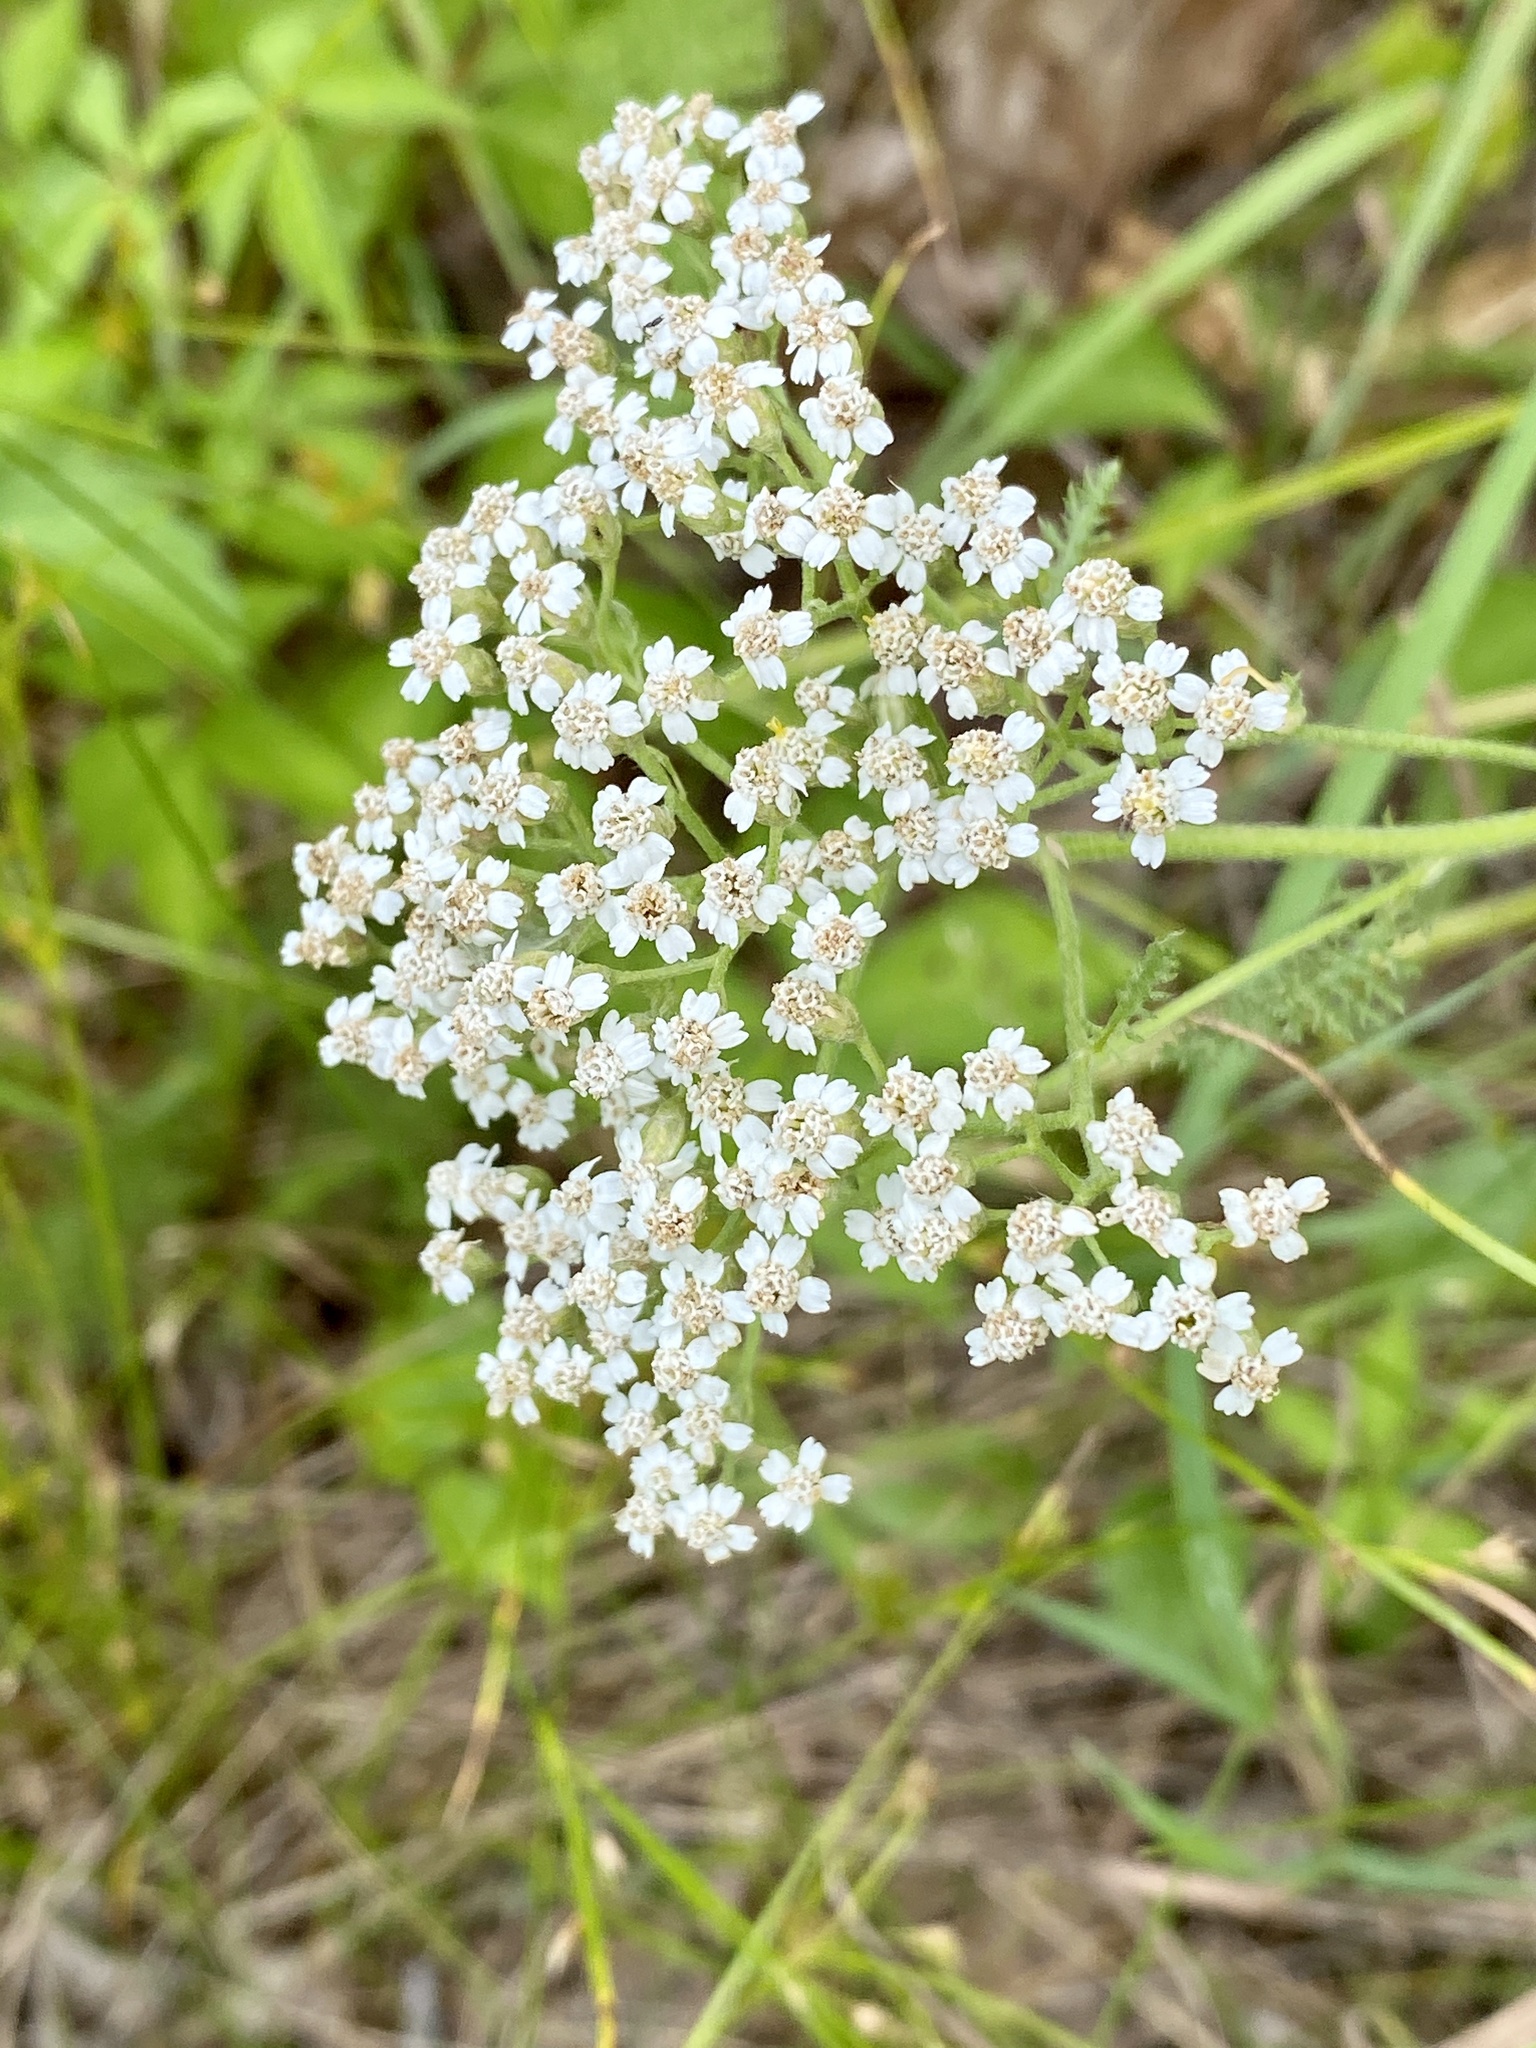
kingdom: Plantae
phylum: Tracheophyta
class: Magnoliopsida
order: Asterales
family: Asteraceae
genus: Achillea
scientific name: Achillea millefolium
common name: Yarrow
